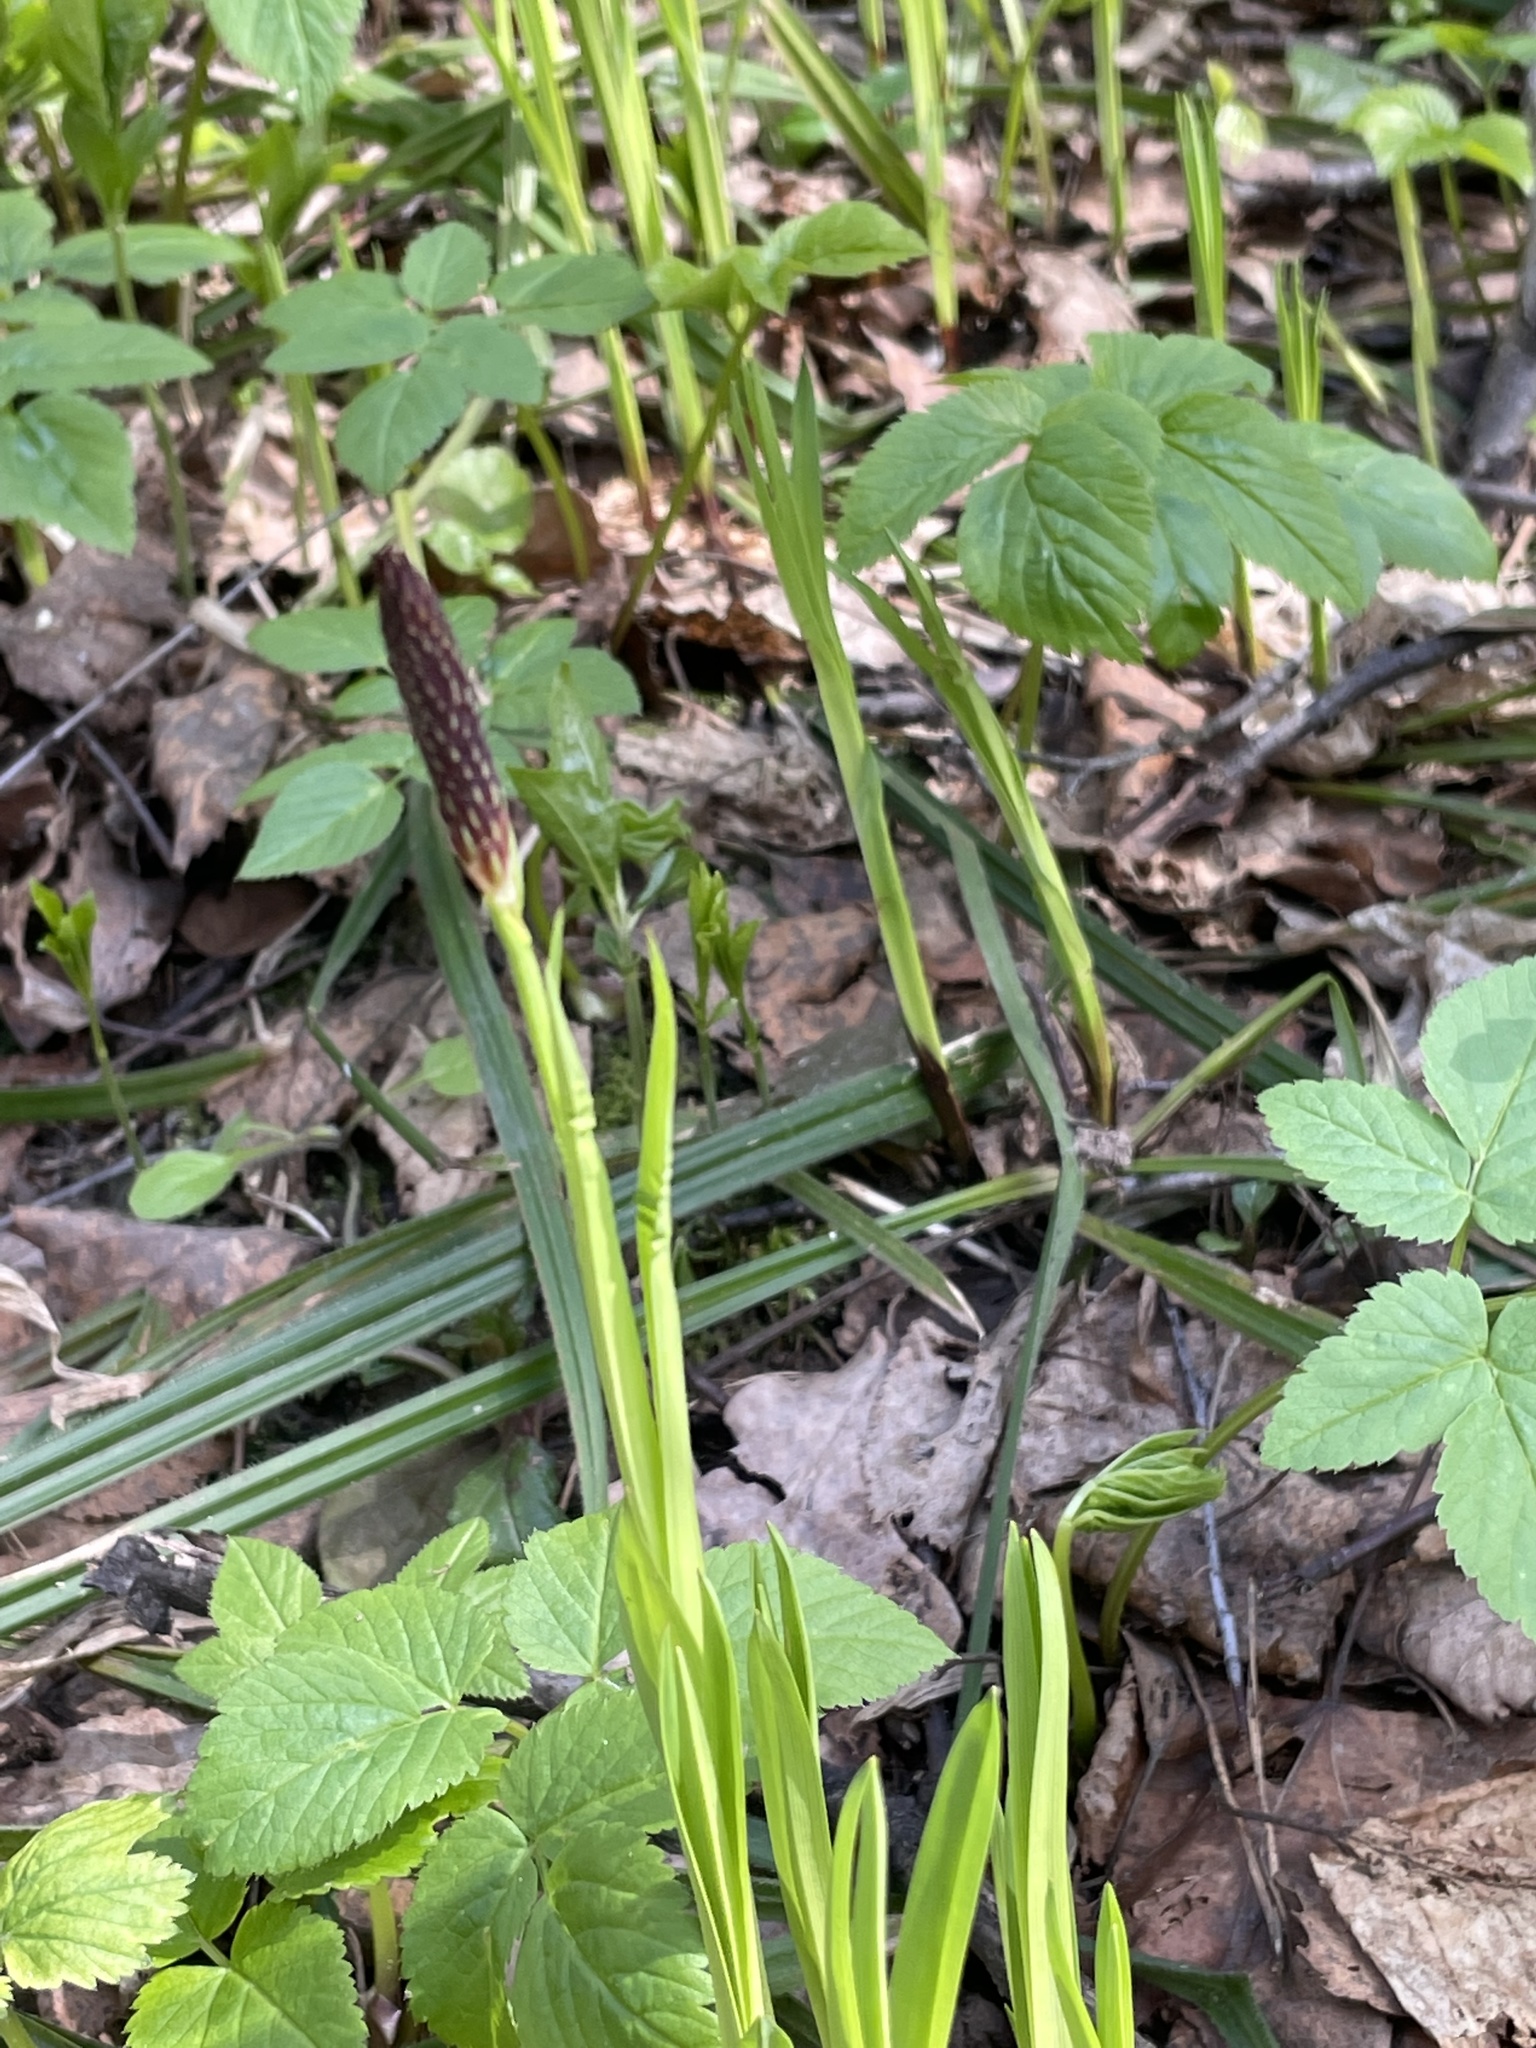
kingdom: Plantae
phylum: Tracheophyta
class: Liliopsida
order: Poales
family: Cyperaceae
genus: Carex
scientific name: Carex pilosa
